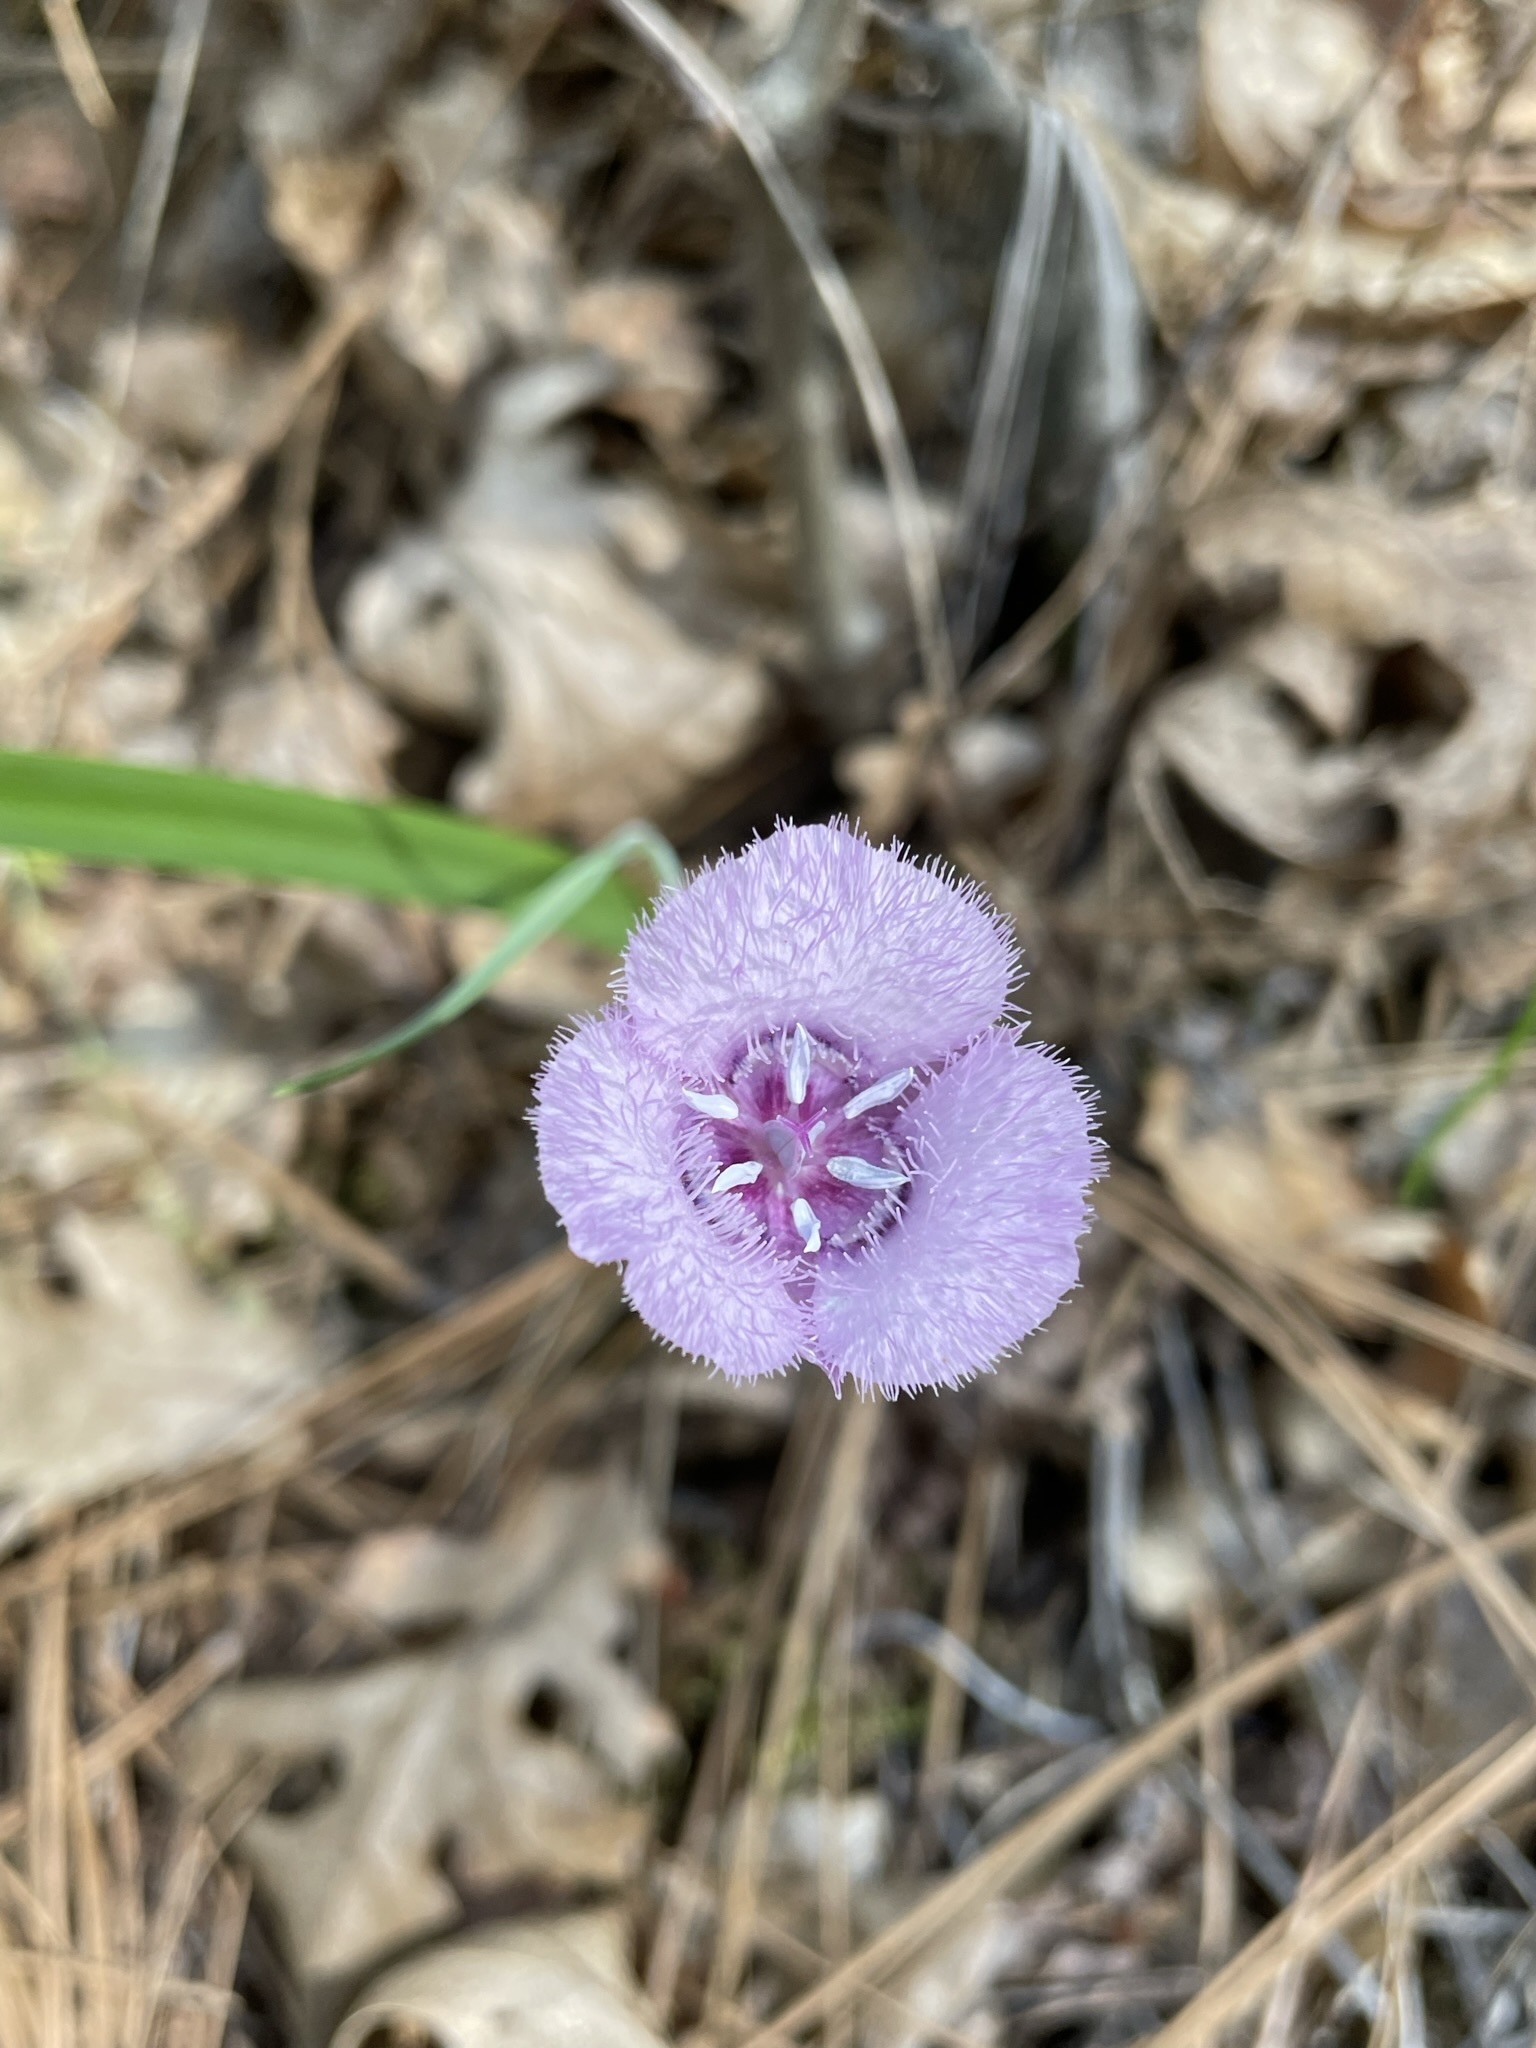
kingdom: Plantae
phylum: Tracheophyta
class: Liliopsida
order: Liliales
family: Liliaceae
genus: Calochortus
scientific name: Calochortus tolmiei
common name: Pussy-ears
